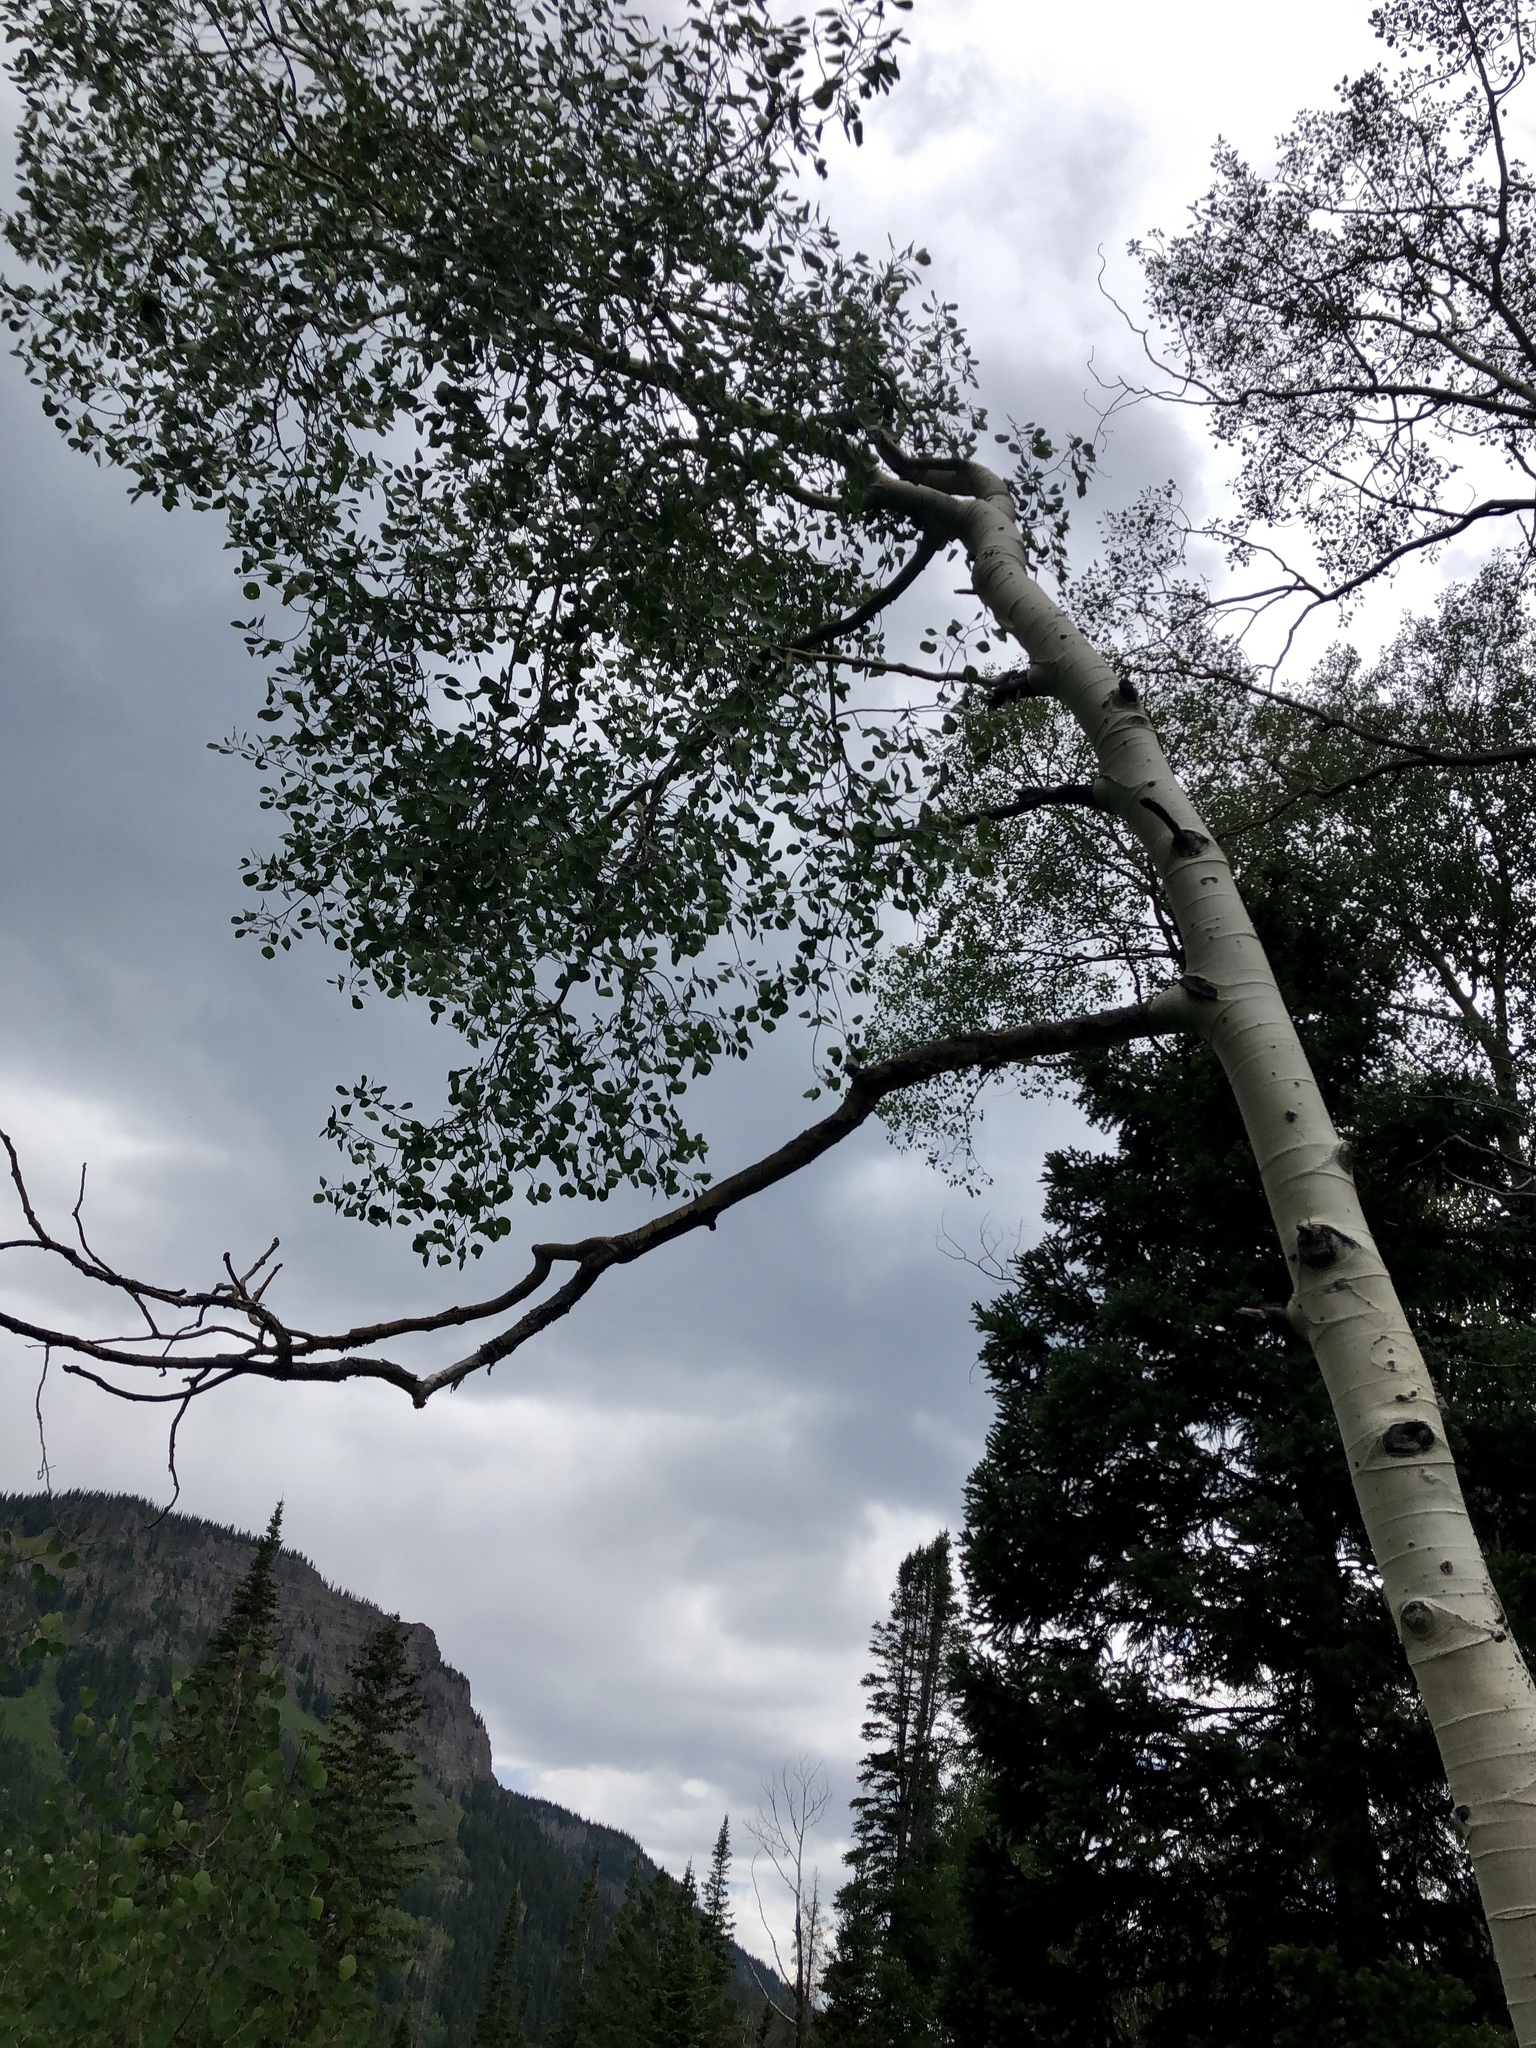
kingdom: Plantae
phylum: Tracheophyta
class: Magnoliopsida
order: Malpighiales
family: Salicaceae
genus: Populus
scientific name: Populus tremuloides
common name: Quaking aspen
